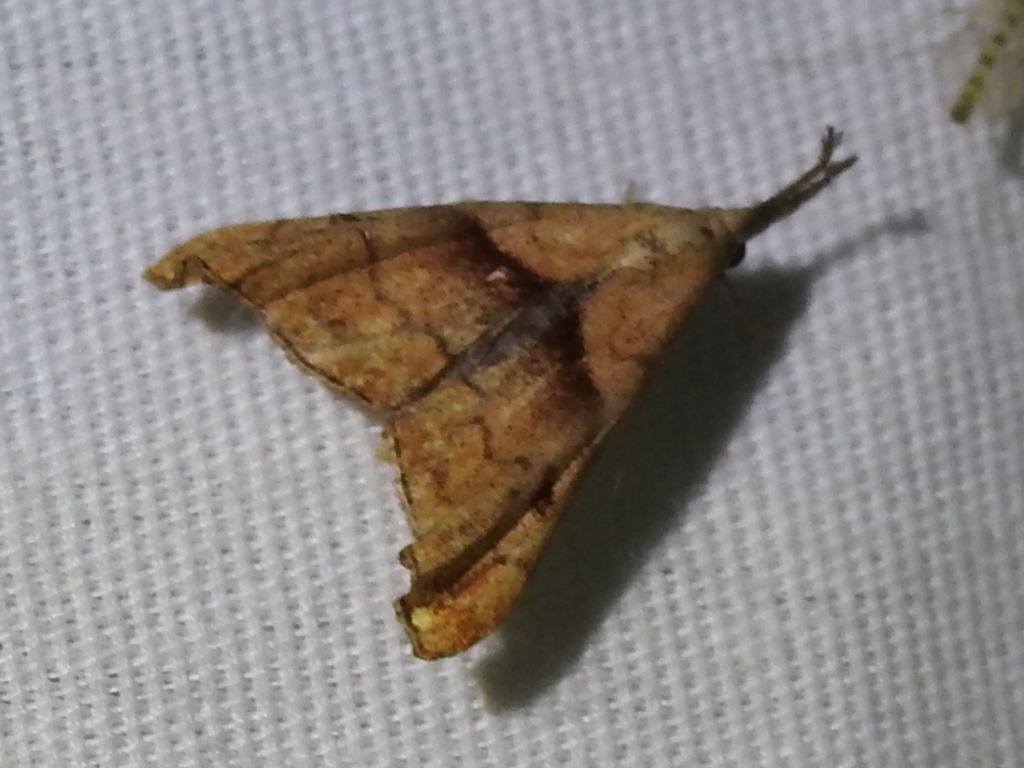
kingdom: Animalia
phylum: Arthropoda
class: Insecta
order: Lepidoptera
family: Erebidae
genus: Palthis
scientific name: Palthis angulalis
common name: Dark-spotted palthis moth
